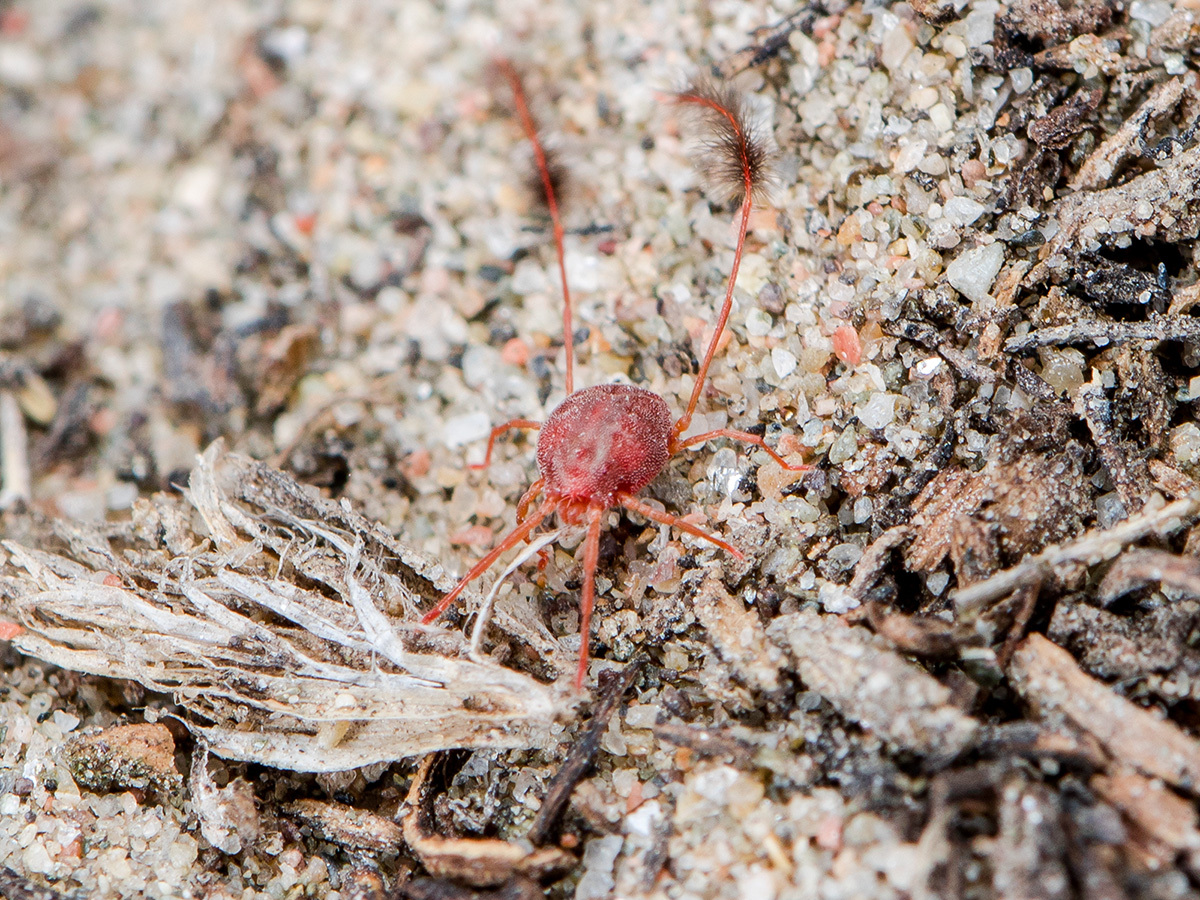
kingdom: Animalia
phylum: Arthropoda
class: Arachnida
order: Trombidiformes
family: Erythraeidae
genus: Eatoniana
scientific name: Eatoniana plumipes
